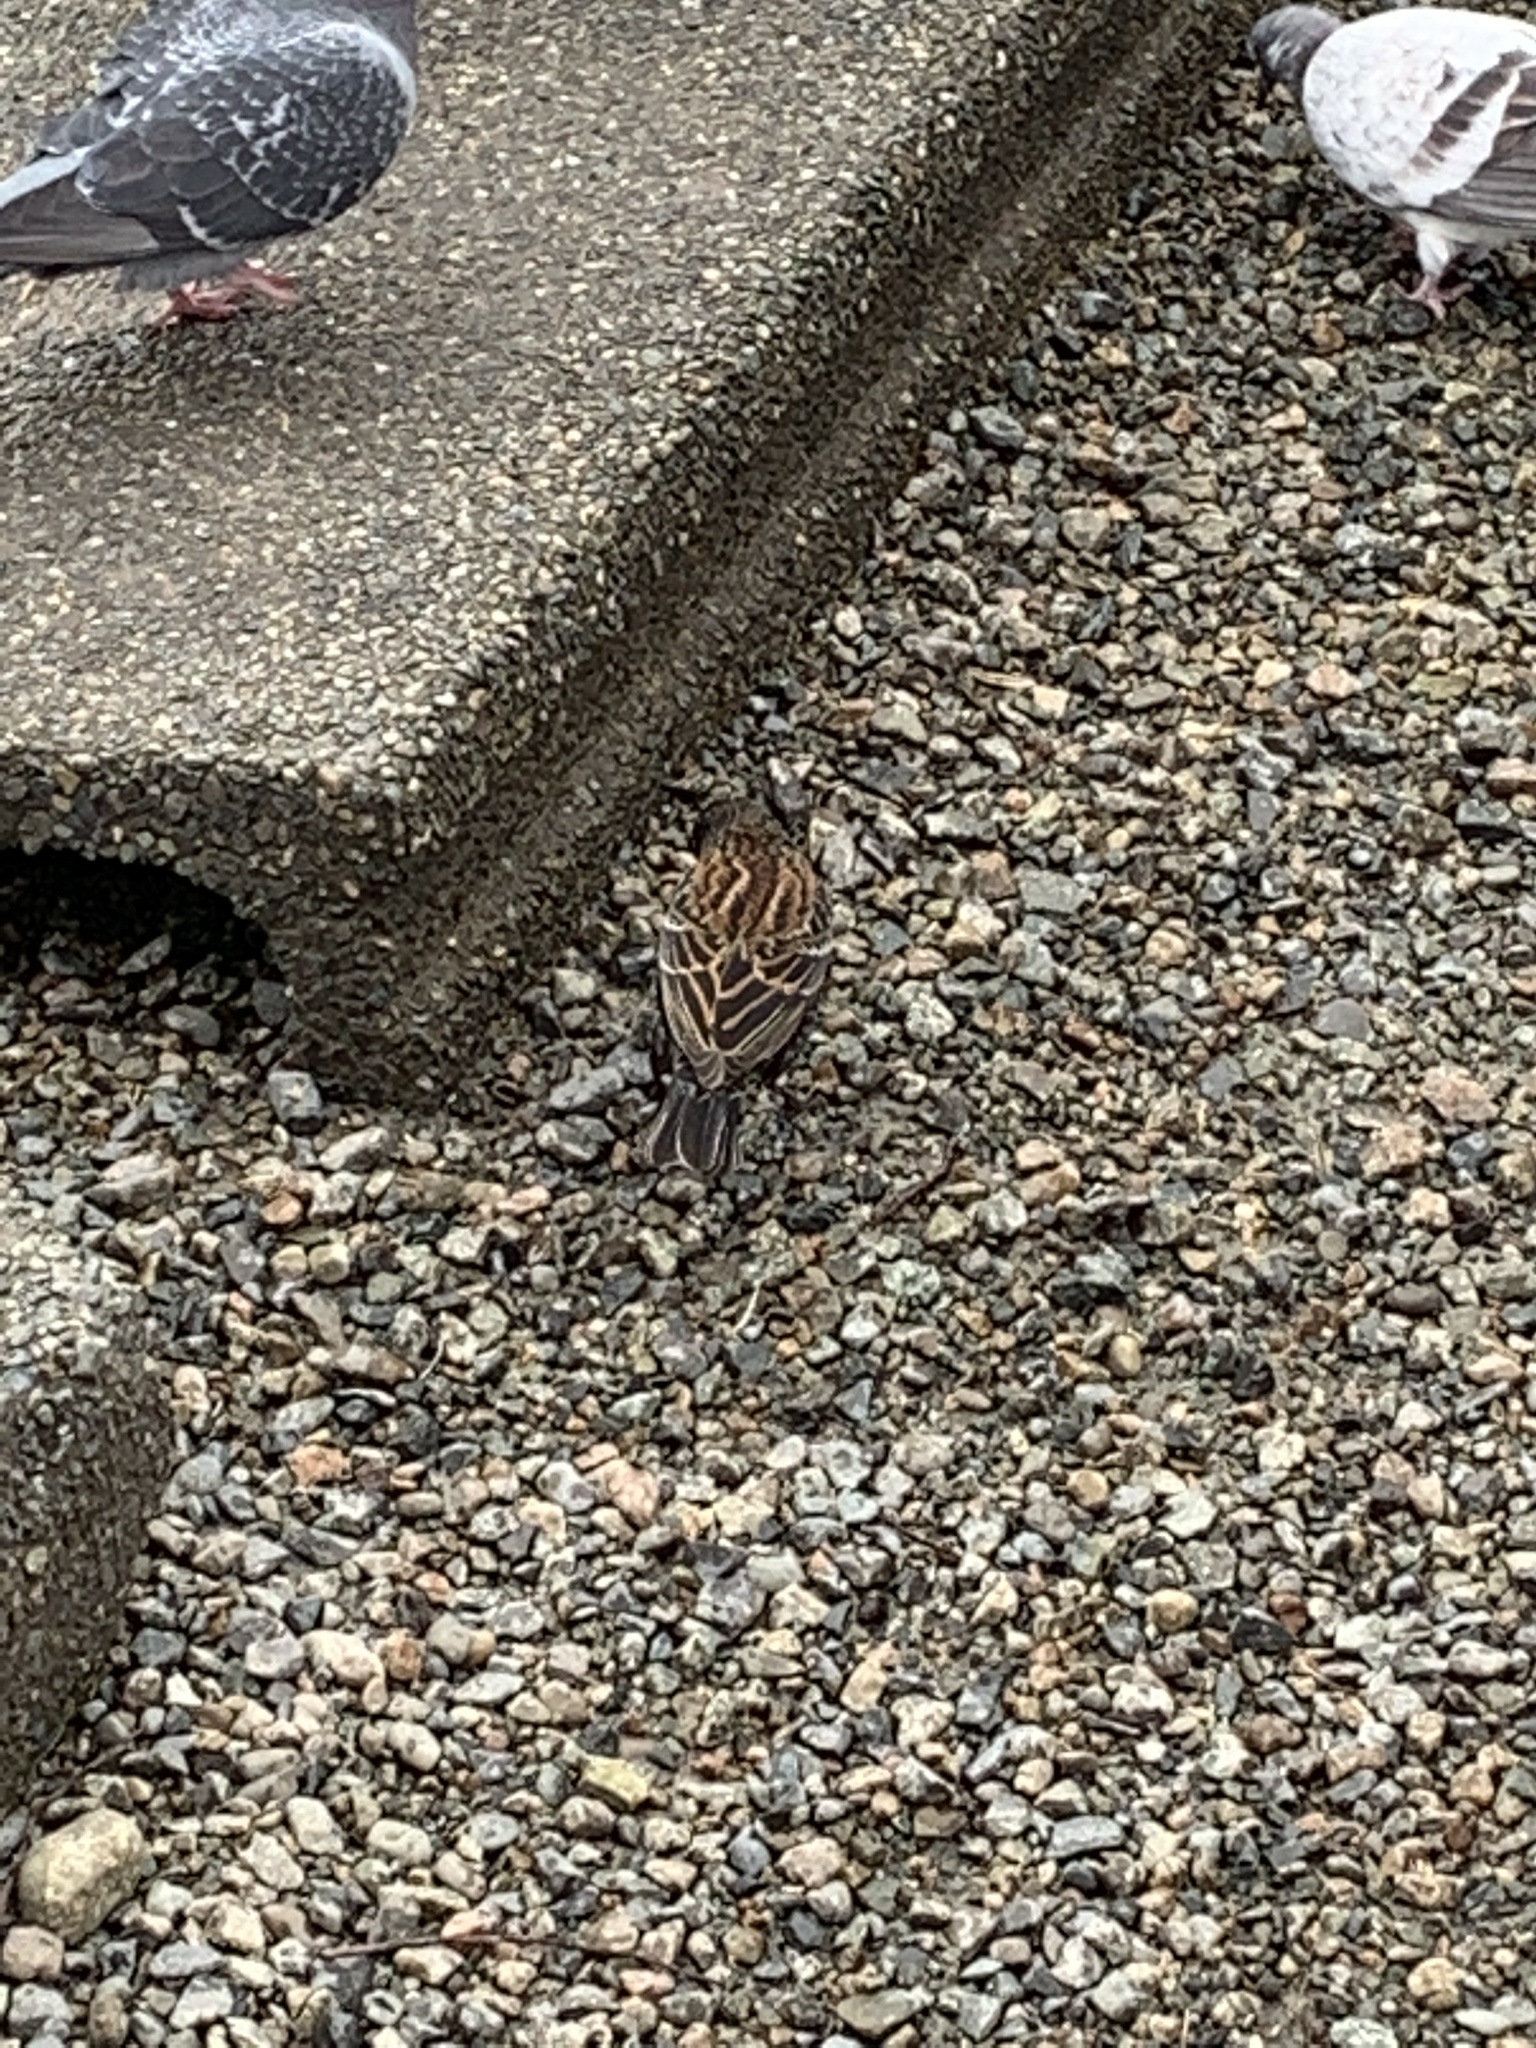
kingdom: Animalia
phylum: Chordata
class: Aves
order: Passeriformes
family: Icteridae
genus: Agelaius
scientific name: Agelaius phoeniceus
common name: Red-winged blackbird
